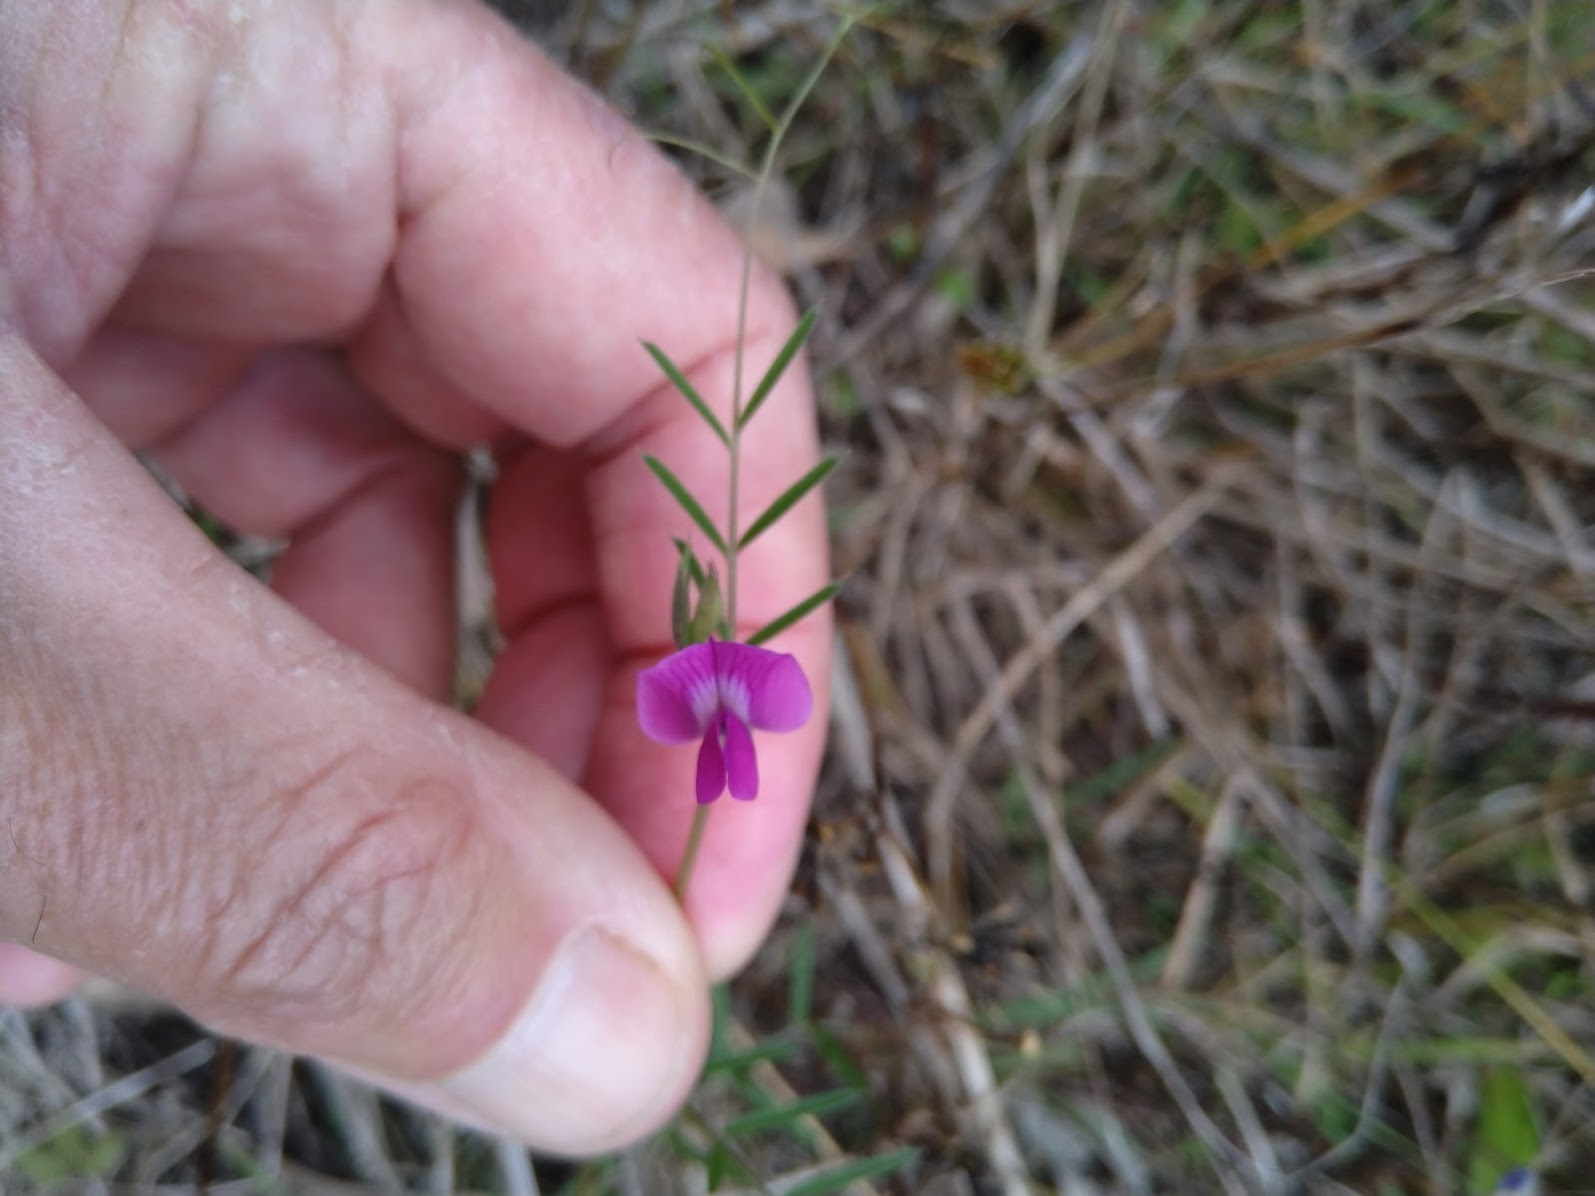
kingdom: Plantae
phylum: Tracheophyta
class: Magnoliopsida
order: Fabales
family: Fabaceae
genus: Vicia
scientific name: Vicia sativa
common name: Garden vetch
